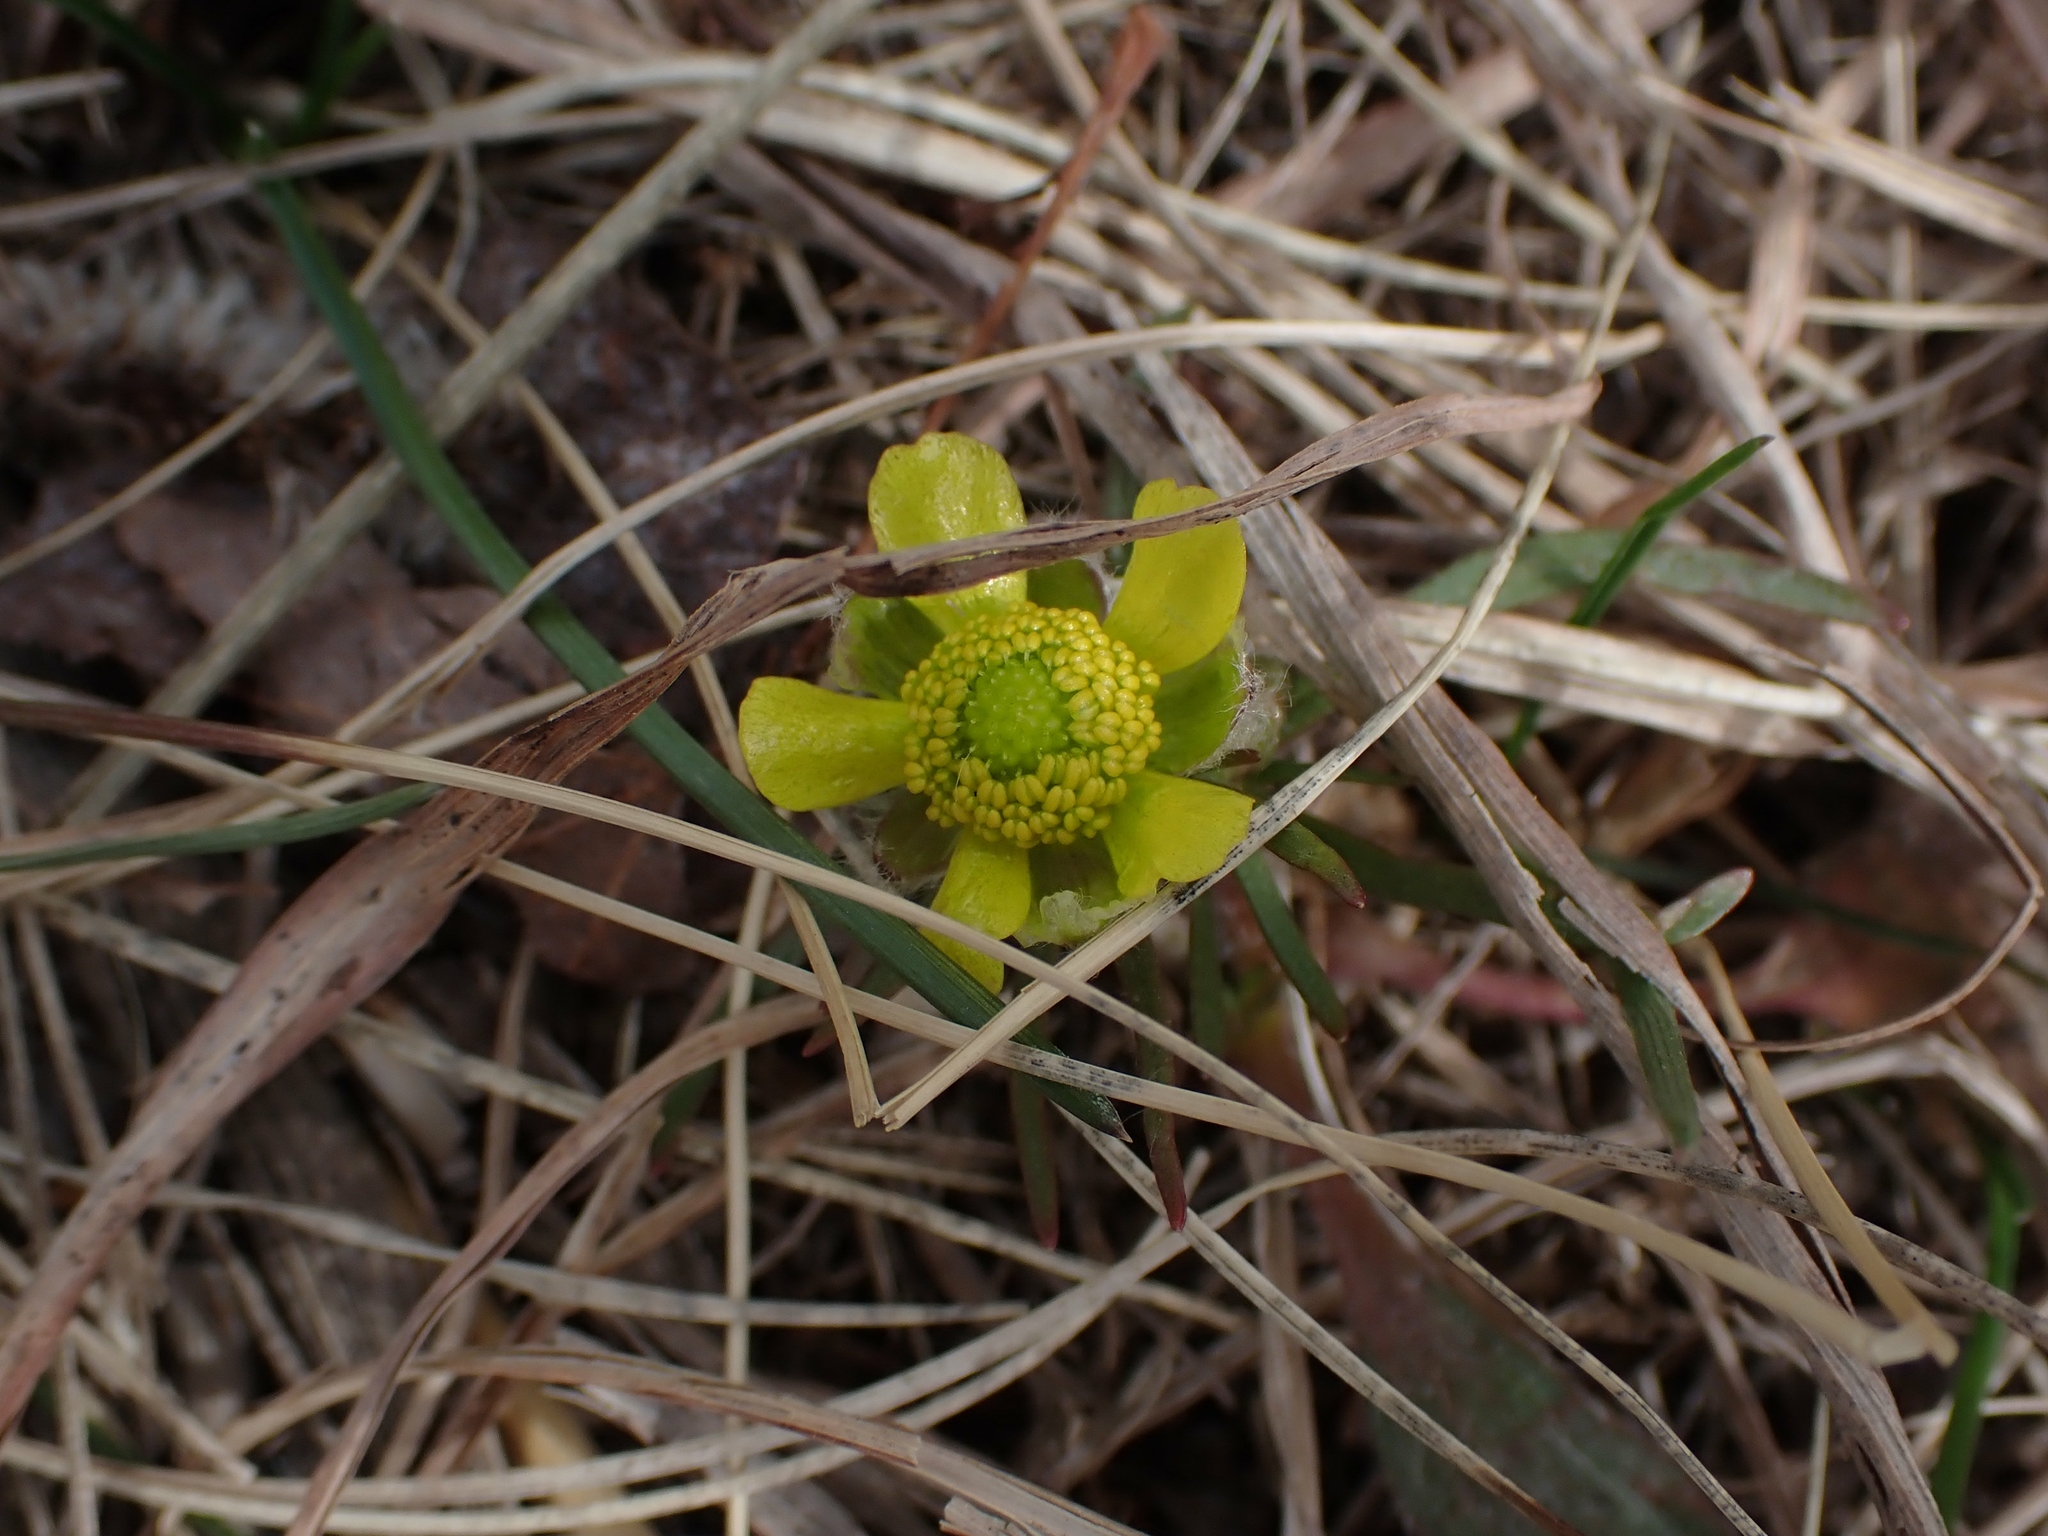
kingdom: Plantae
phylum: Tracheophyta
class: Magnoliopsida
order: Ranunculales
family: Ranunculaceae
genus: Ranunculus
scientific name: Ranunculus rhomboideus
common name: Prairie buttercup
